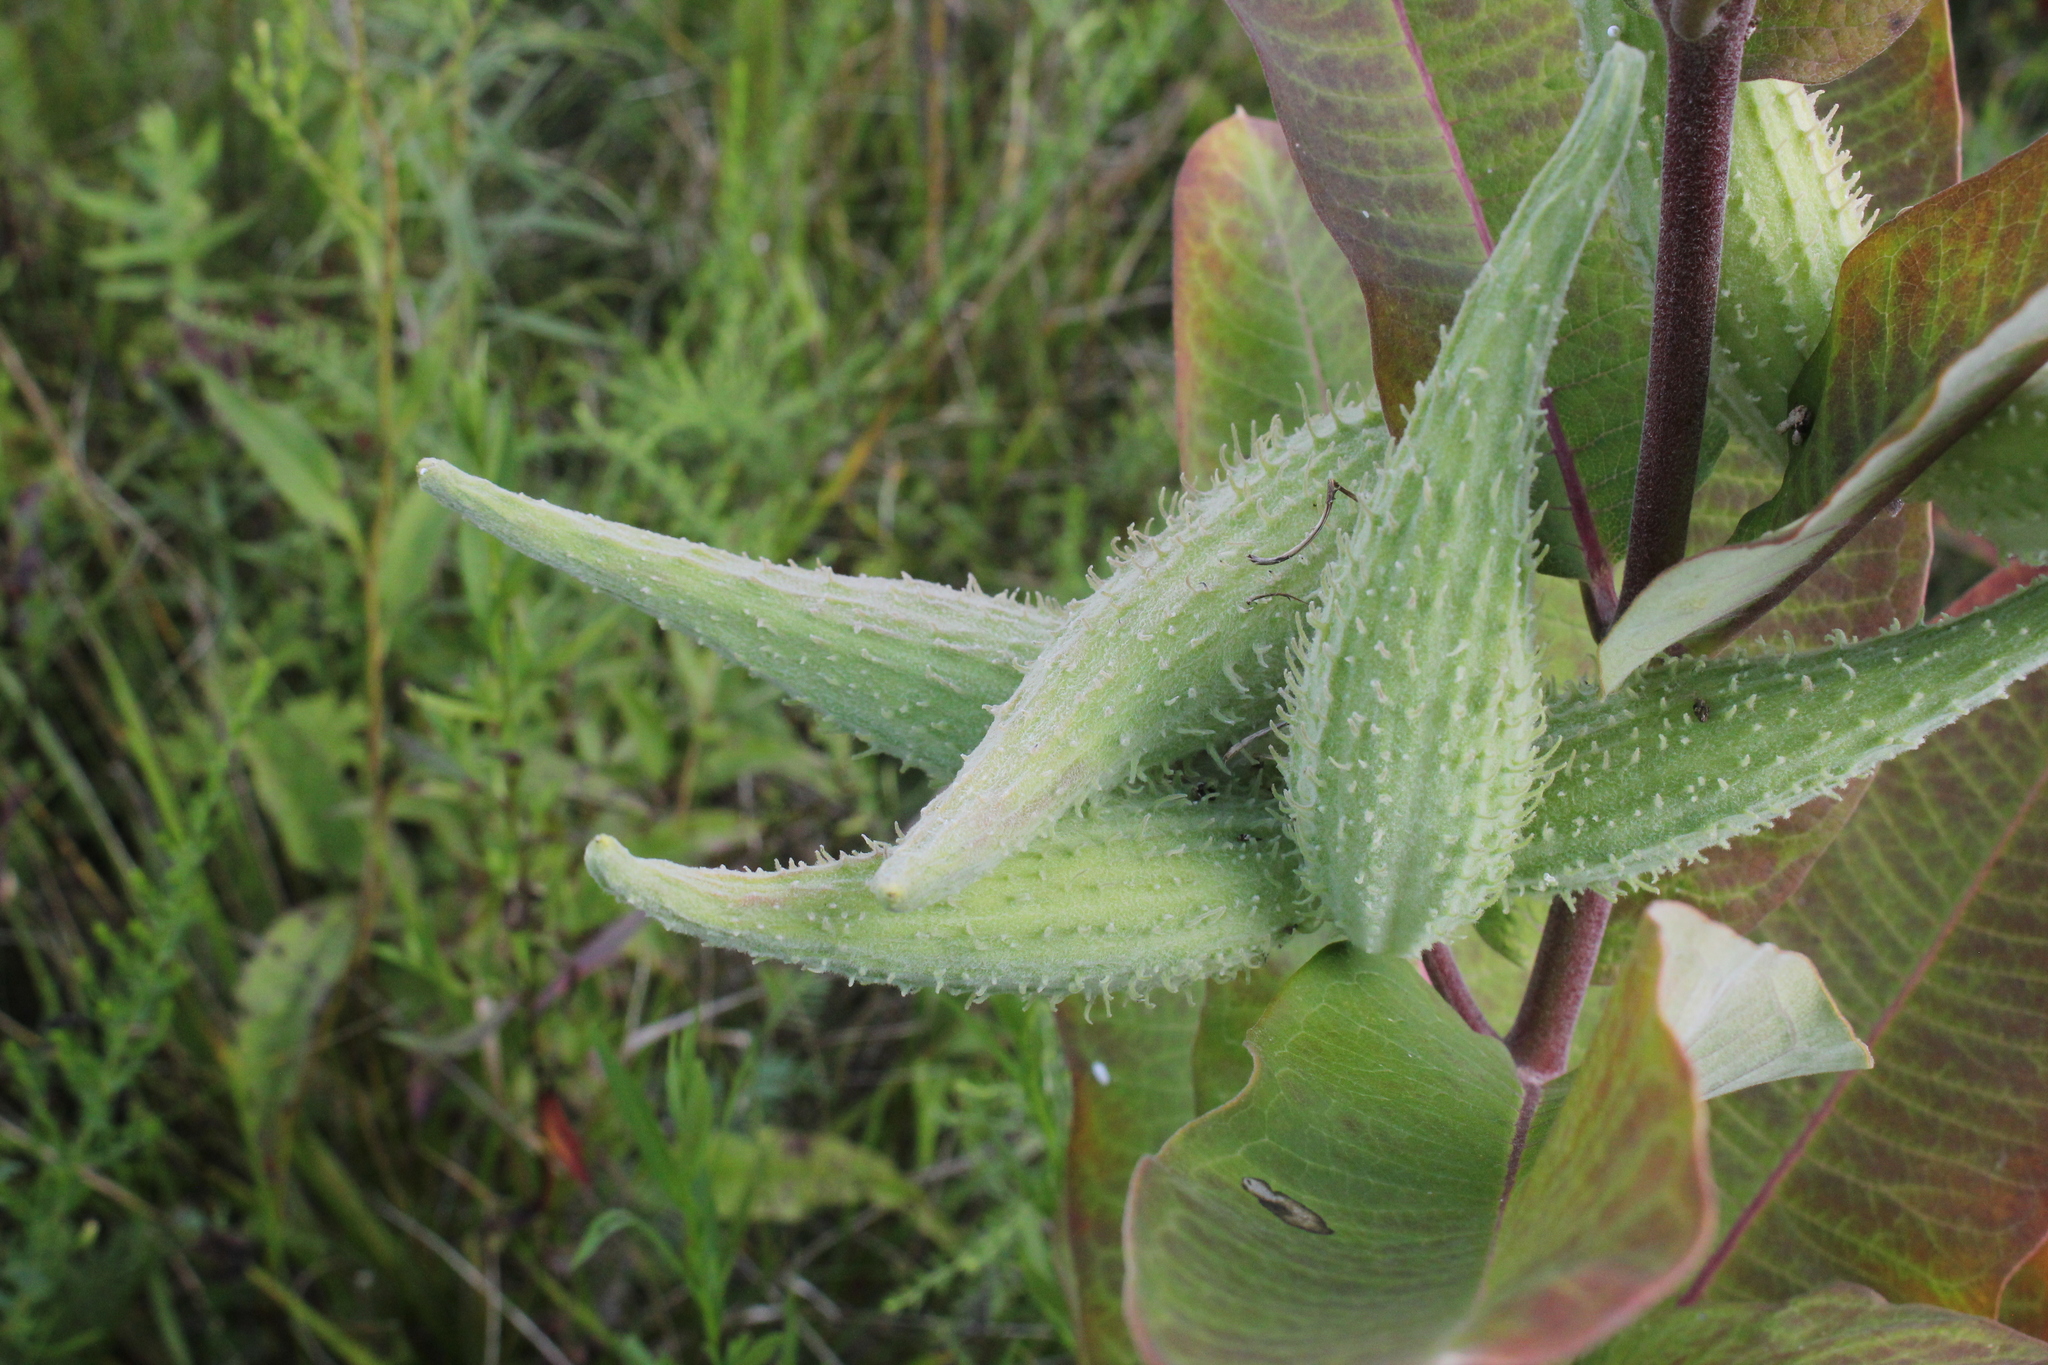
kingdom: Plantae
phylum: Tracheophyta
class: Magnoliopsida
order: Gentianales
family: Apocynaceae
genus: Asclepias
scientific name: Asclepias syriaca
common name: Common milkweed
